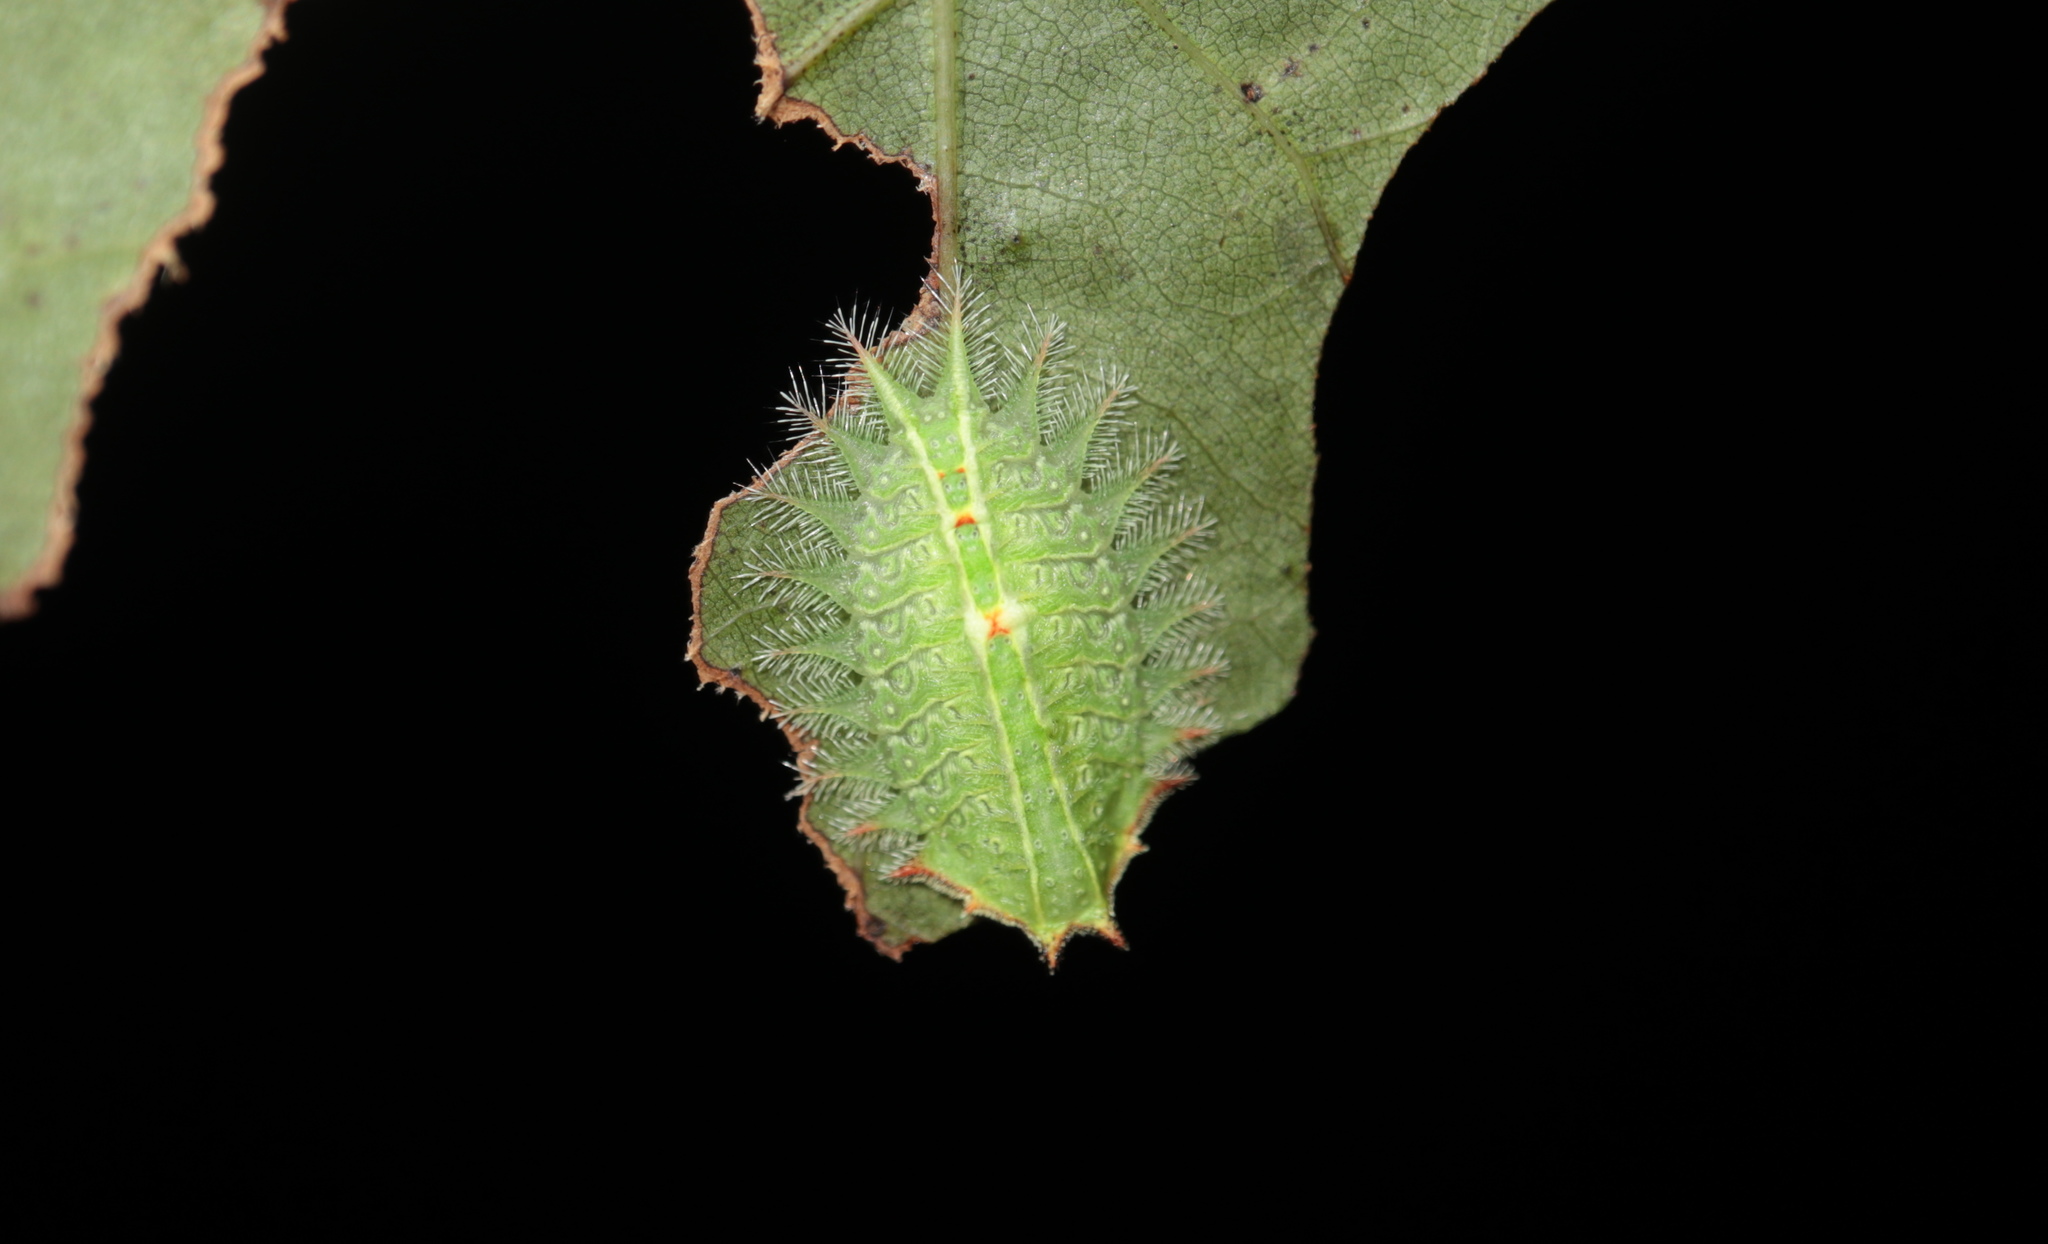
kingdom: Animalia
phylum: Arthropoda
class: Insecta
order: Lepidoptera
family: Limacodidae
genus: Isa
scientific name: Isa textula
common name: Crowned slug moth
